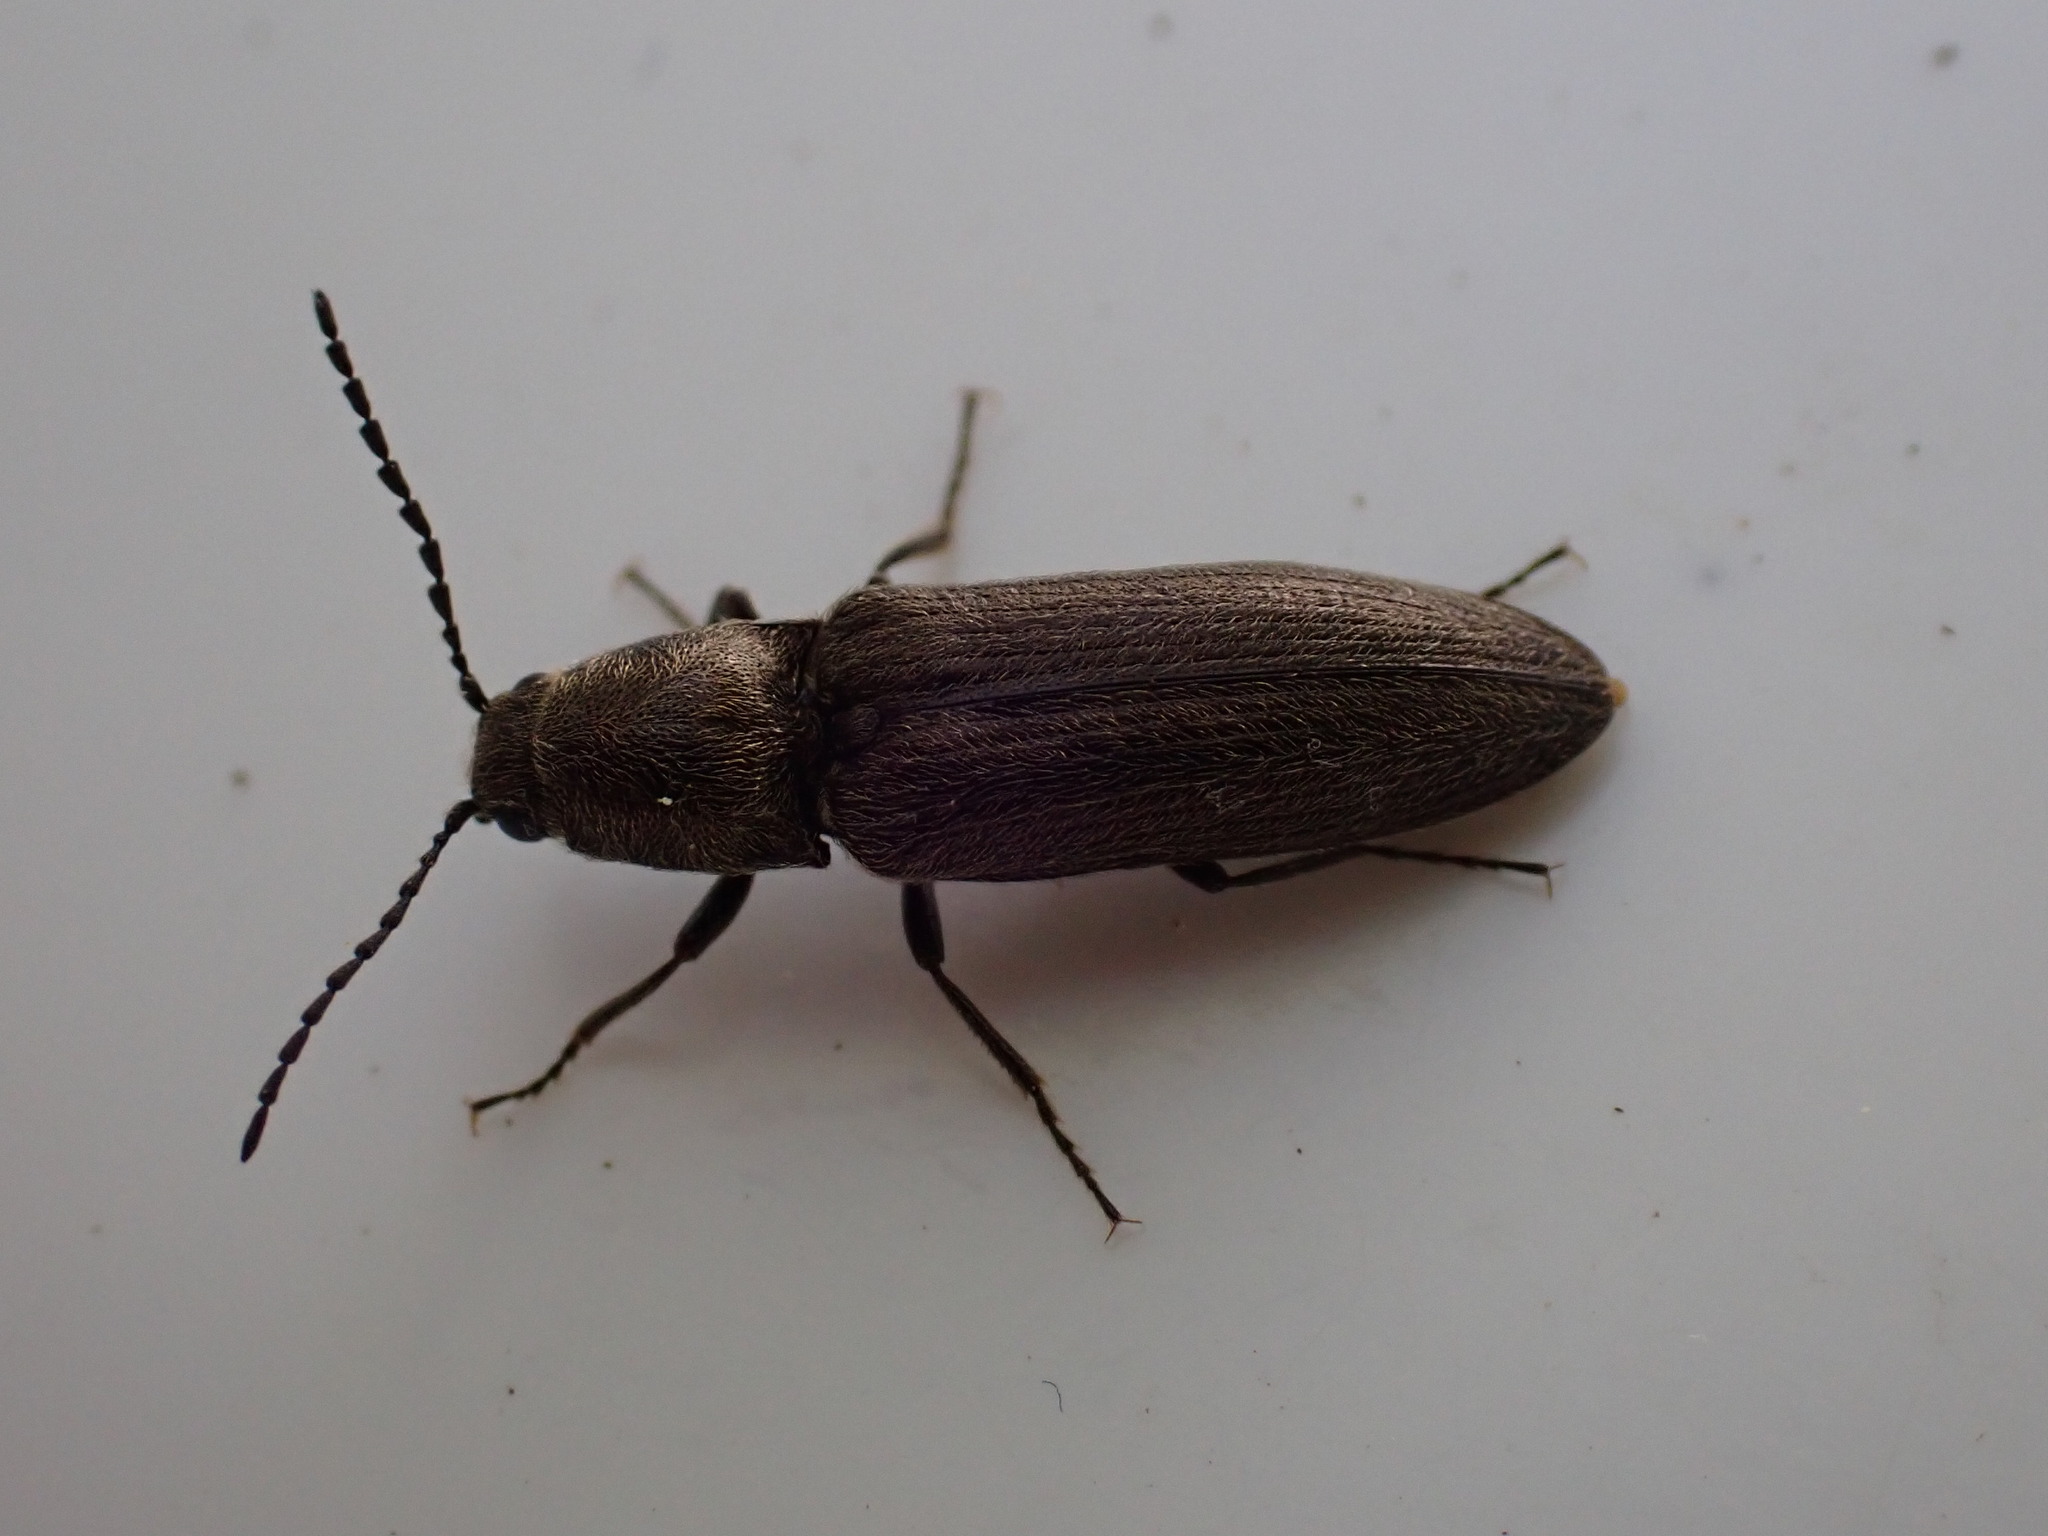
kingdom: Animalia
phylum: Arthropoda
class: Insecta
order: Coleoptera
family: Elateridae
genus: Cidnopus
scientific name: Cidnopus aeruginosus
